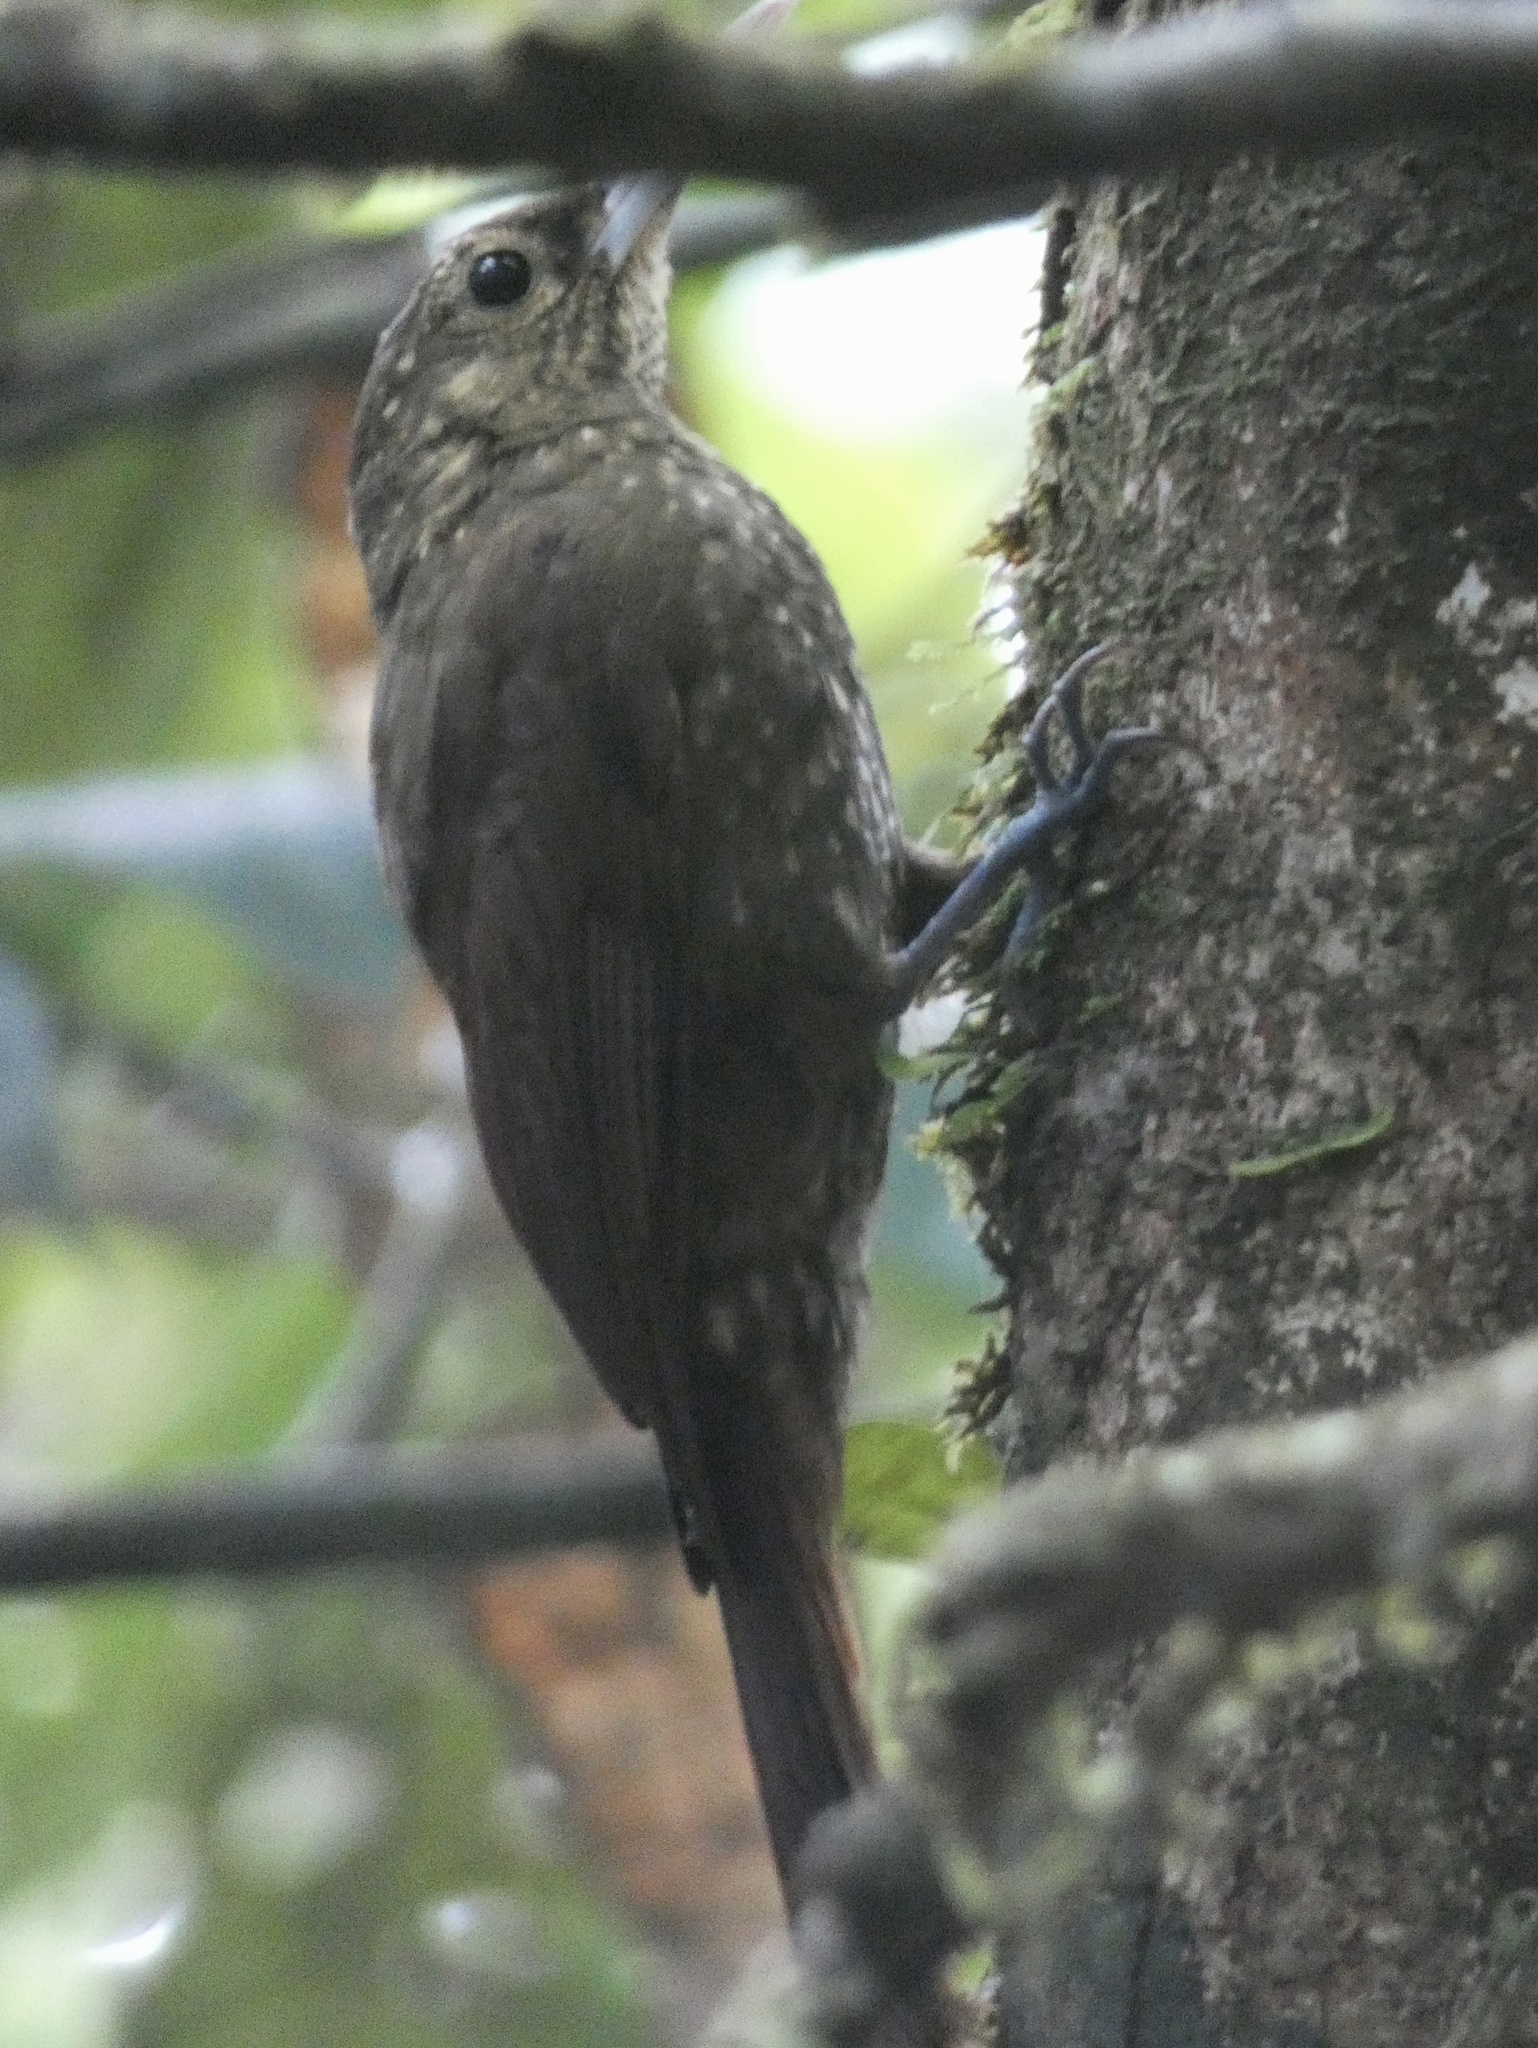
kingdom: Animalia
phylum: Chordata
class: Aves
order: Passeriformes
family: Furnariidae
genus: Xiphorhynchus
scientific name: Xiphorhynchus erythropygius
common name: Spotted woodcreeper
